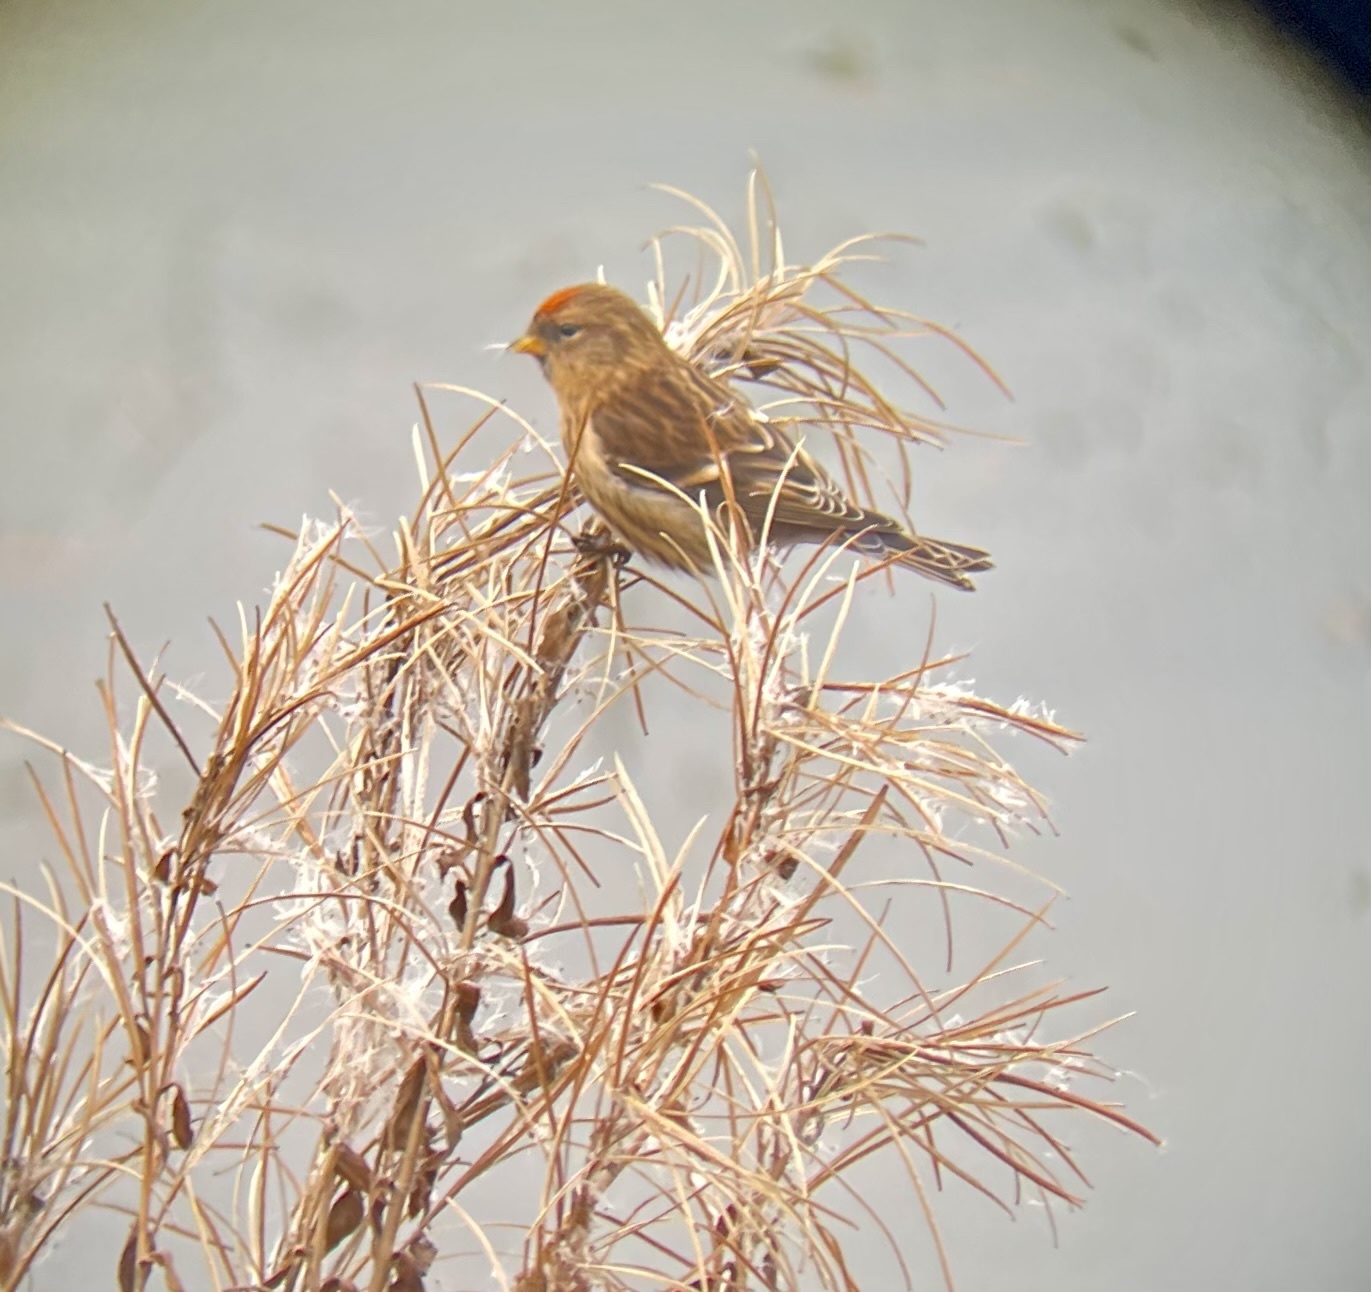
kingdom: Animalia
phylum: Chordata
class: Aves
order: Passeriformes
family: Fringillidae
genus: Acanthis
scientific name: Acanthis flammea
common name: Common redpoll
